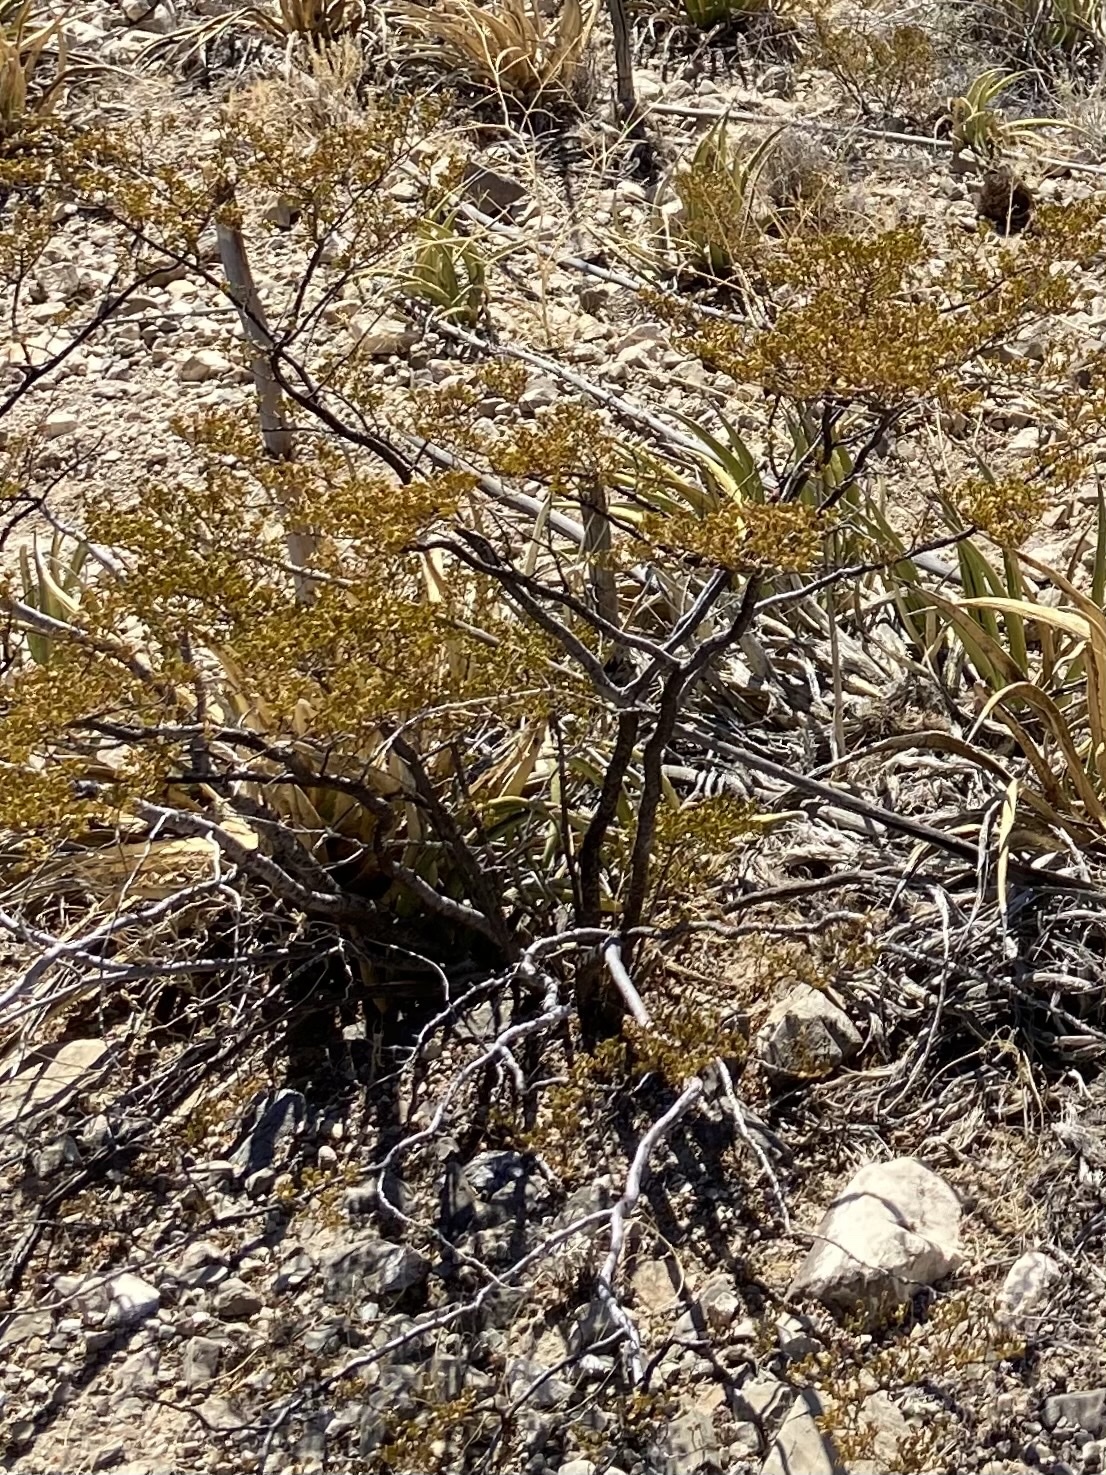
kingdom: Plantae
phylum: Tracheophyta
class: Magnoliopsida
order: Zygophyllales
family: Zygophyllaceae
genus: Larrea
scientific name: Larrea tridentata
